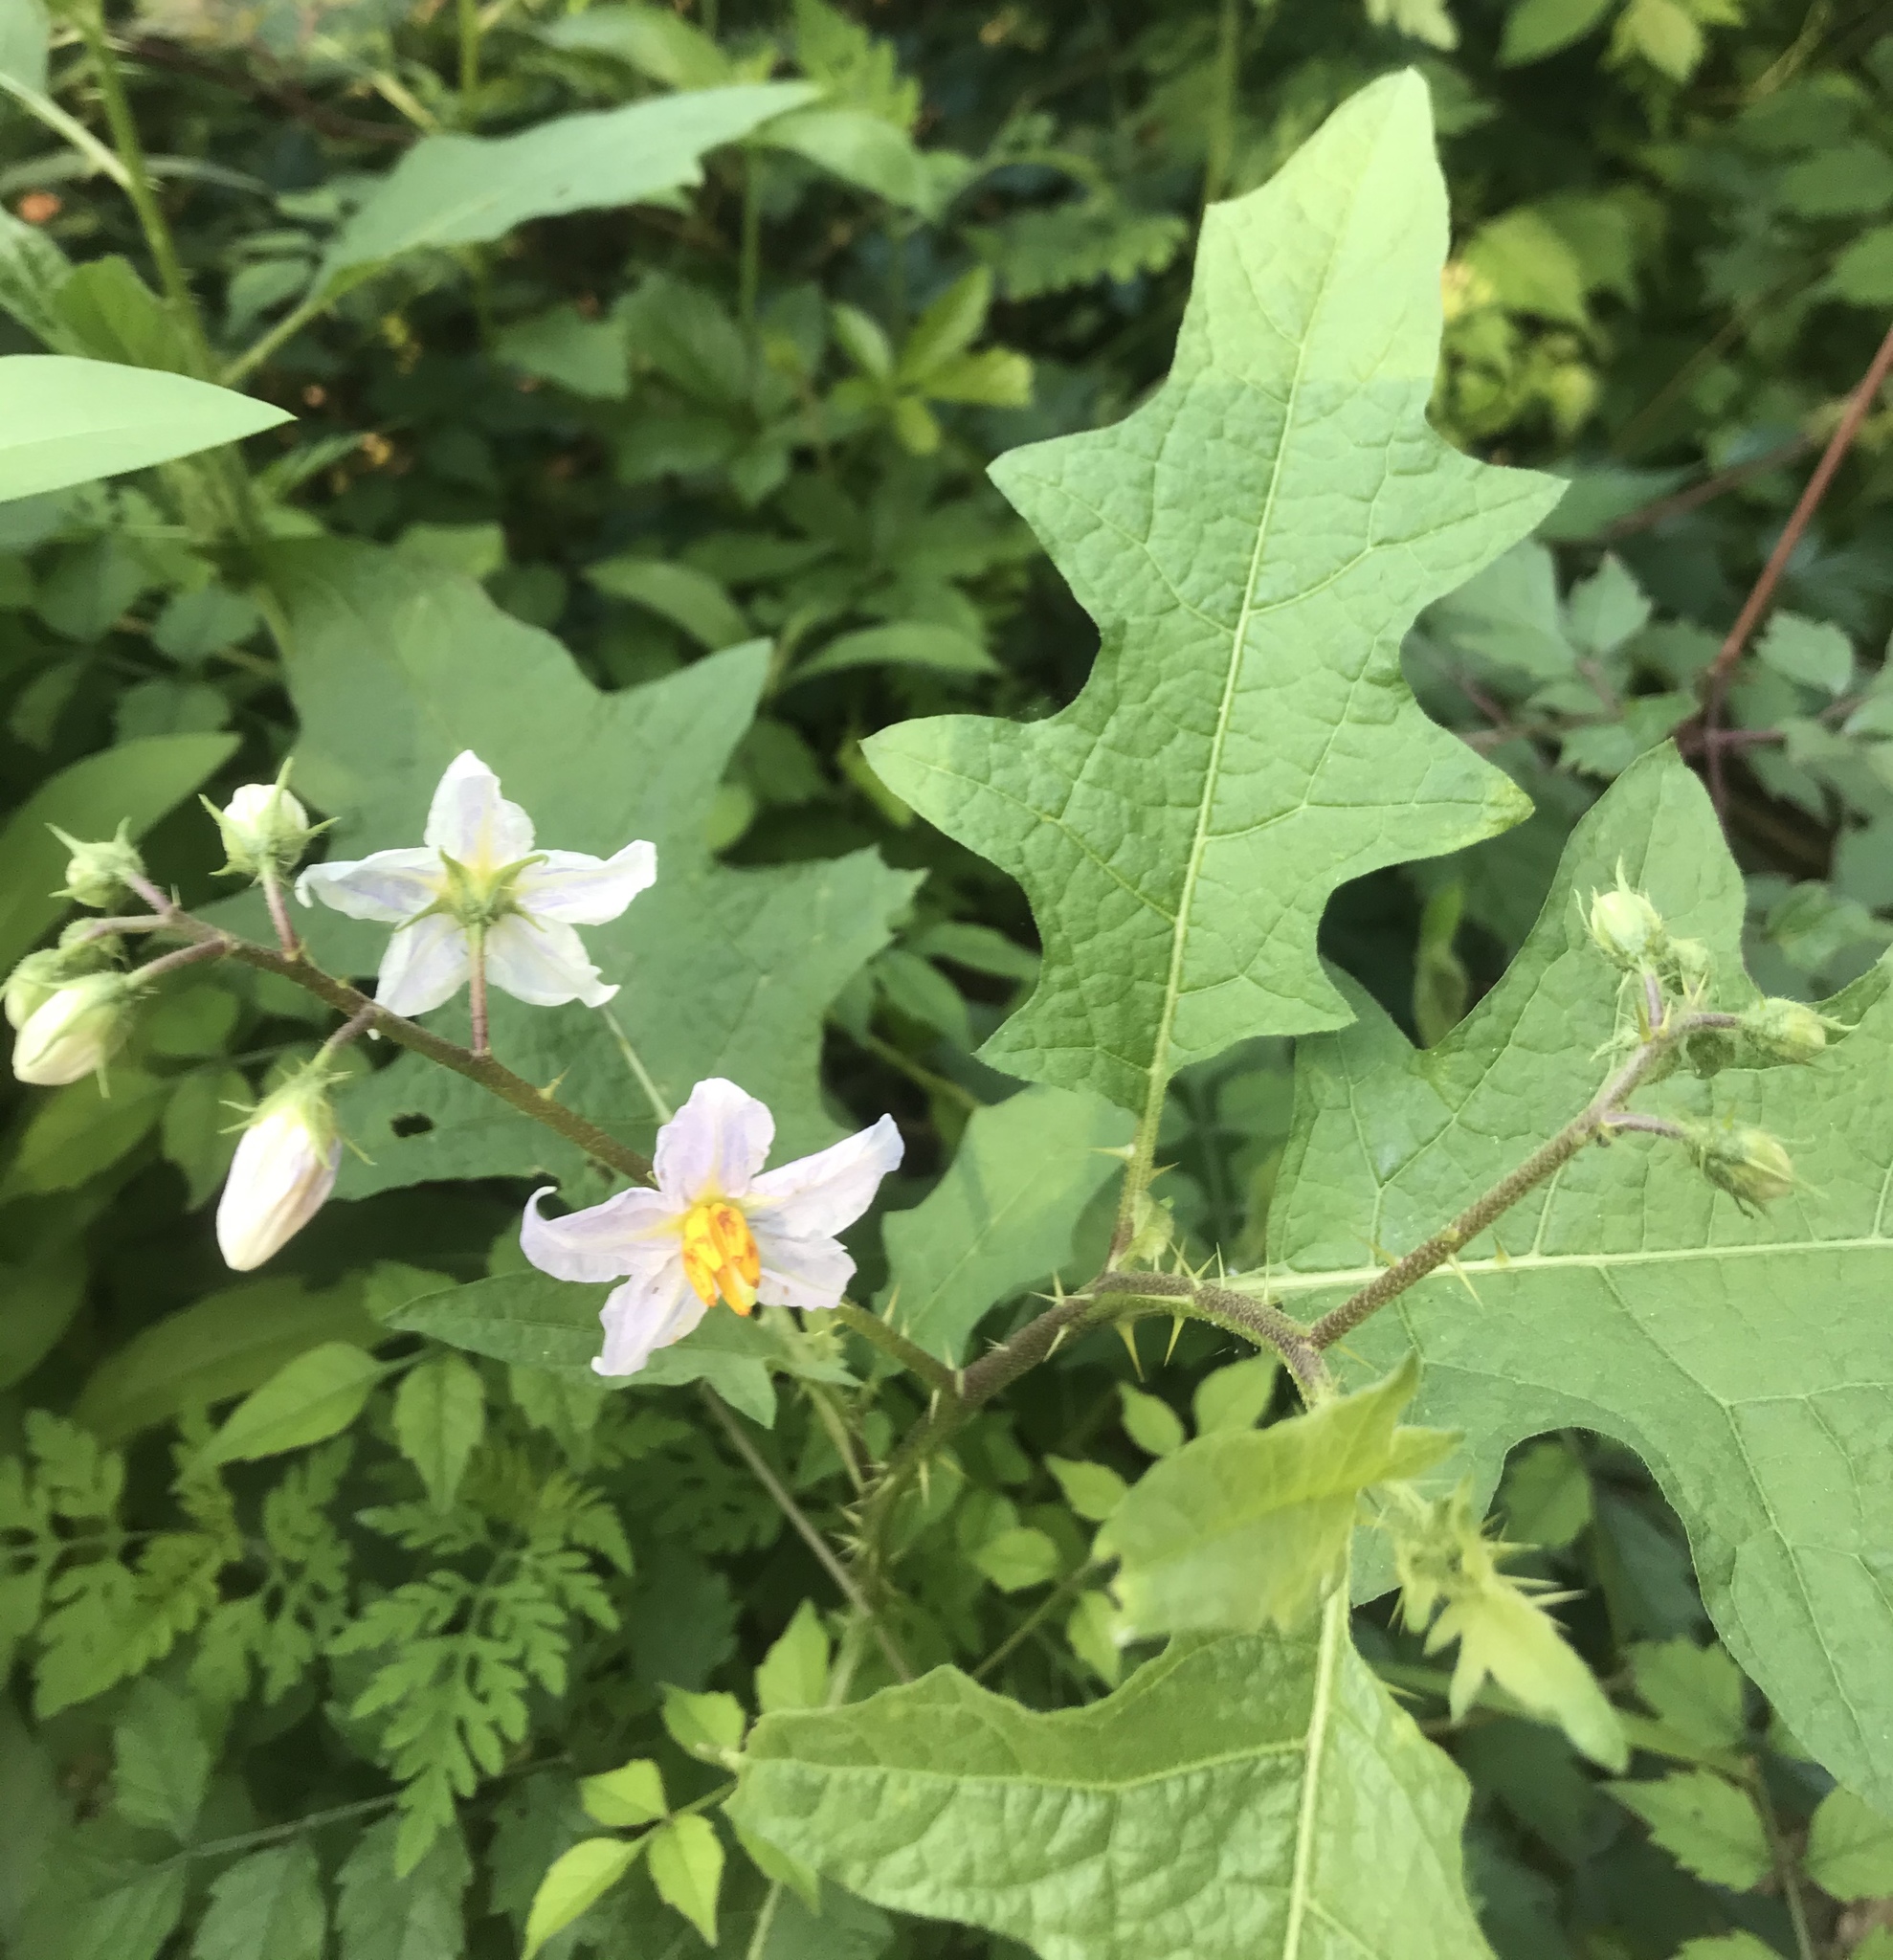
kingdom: Plantae
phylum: Tracheophyta
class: Magnoliopsida
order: Solanales
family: Solanaceae
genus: Solanum
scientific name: Solanum carolinense
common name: Horse-nettle
